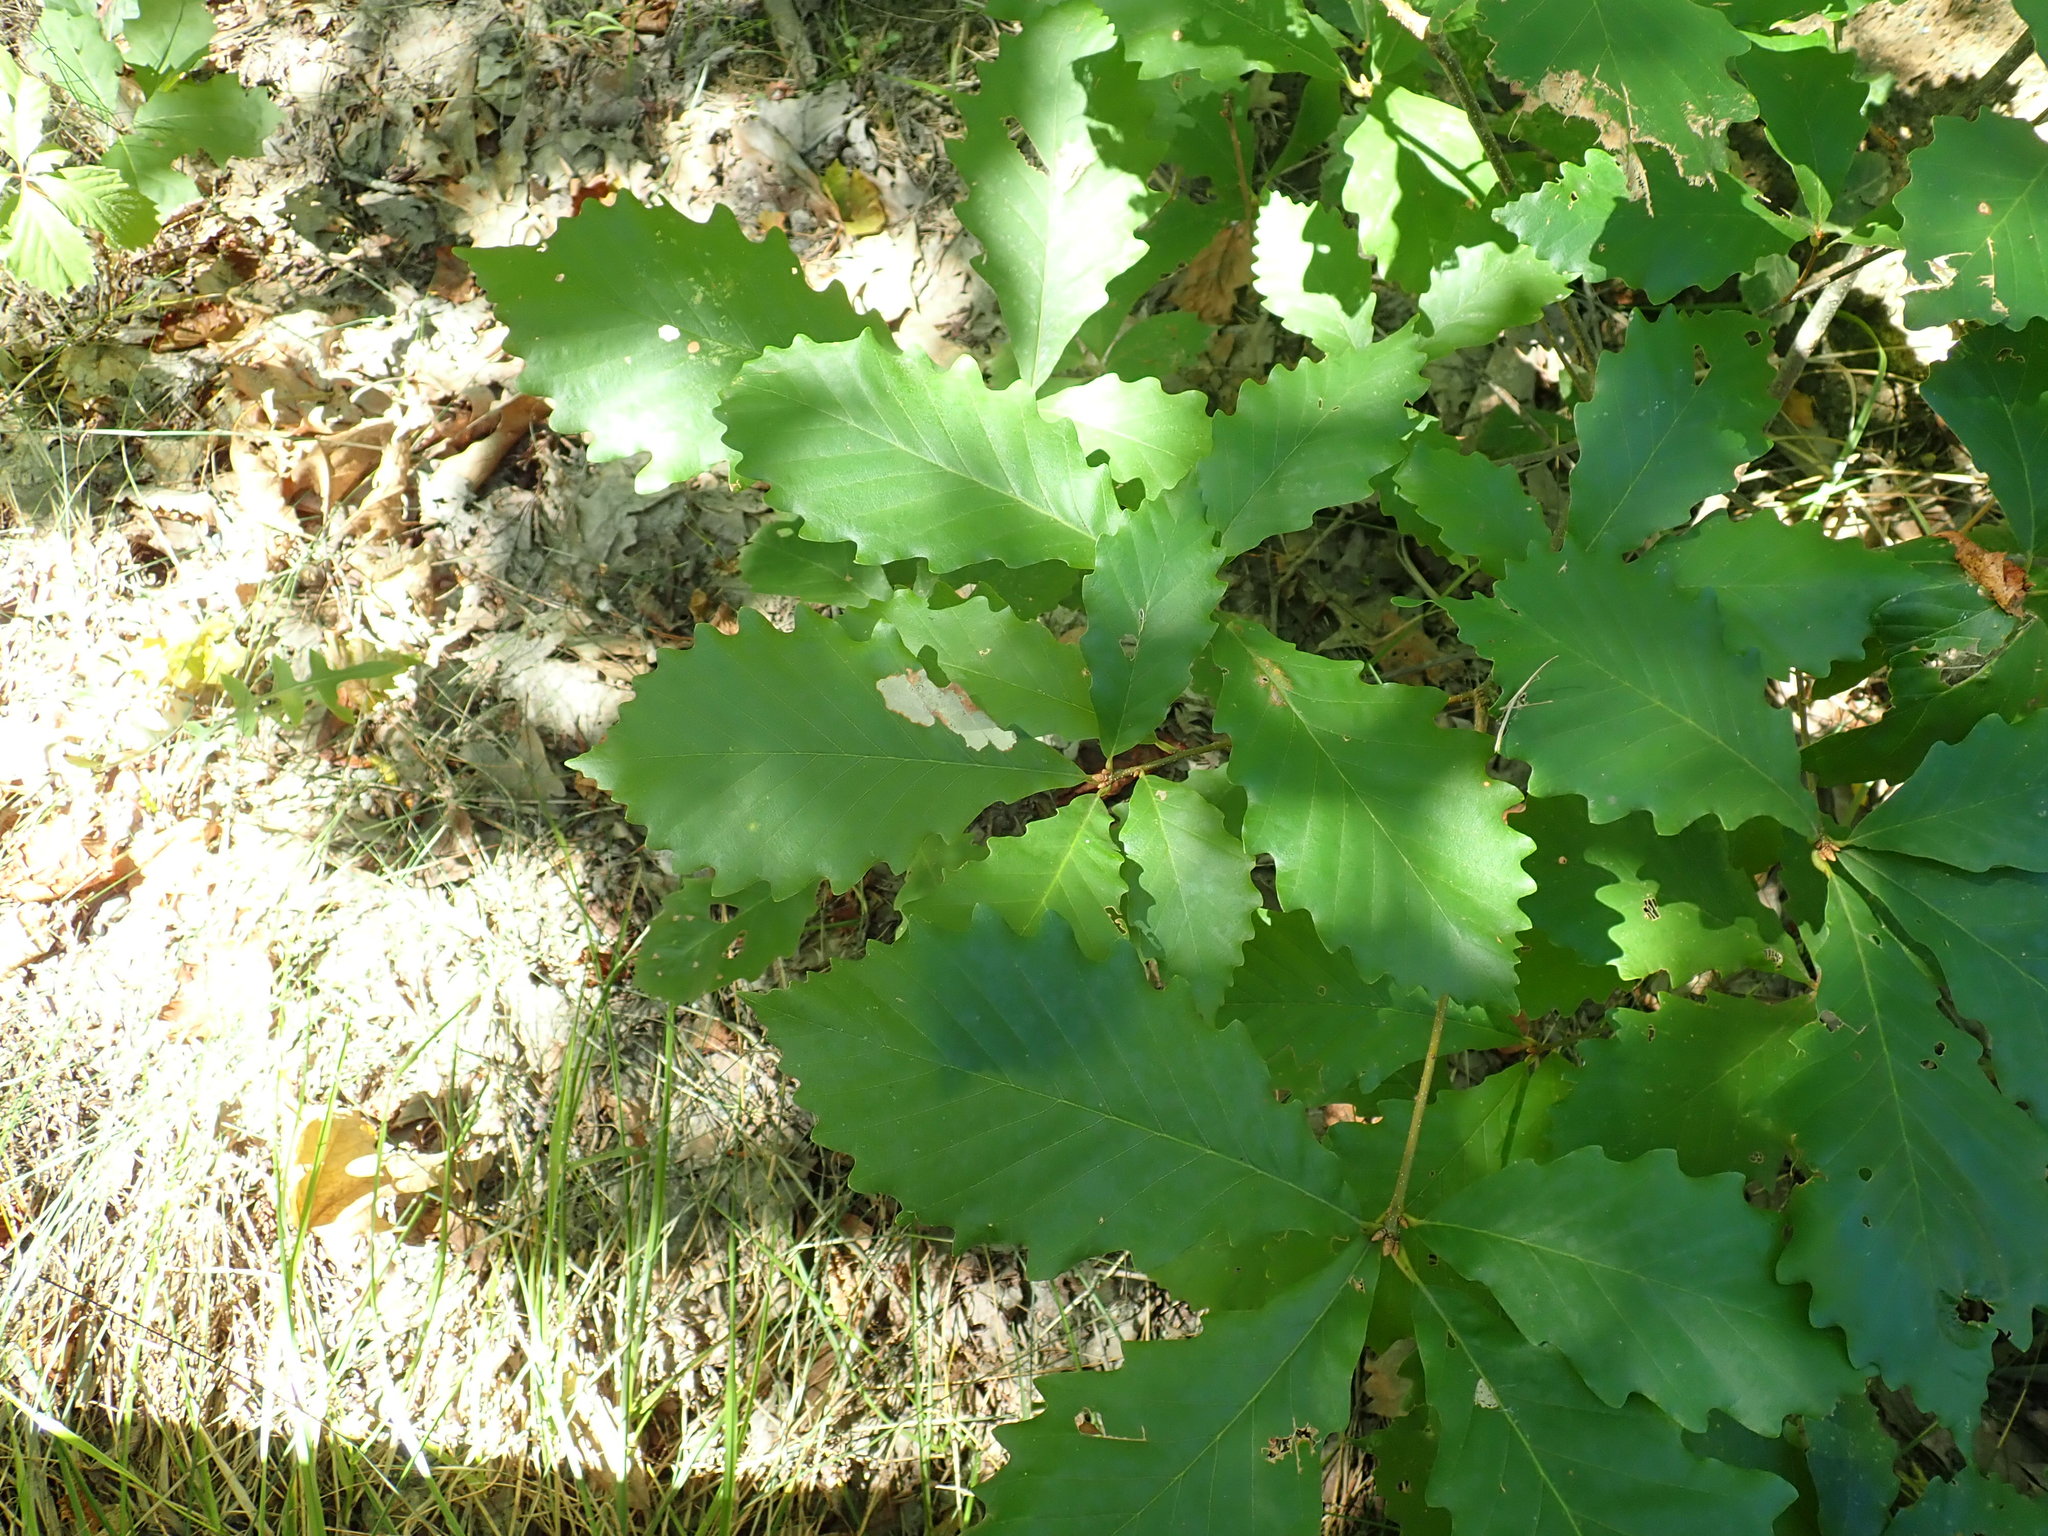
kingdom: Plantae
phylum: Tracheophyta
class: Magnoliopsida
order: Fagales
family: Fagaceae
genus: Quercus
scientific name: Quercus montana
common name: Chestnut oak
